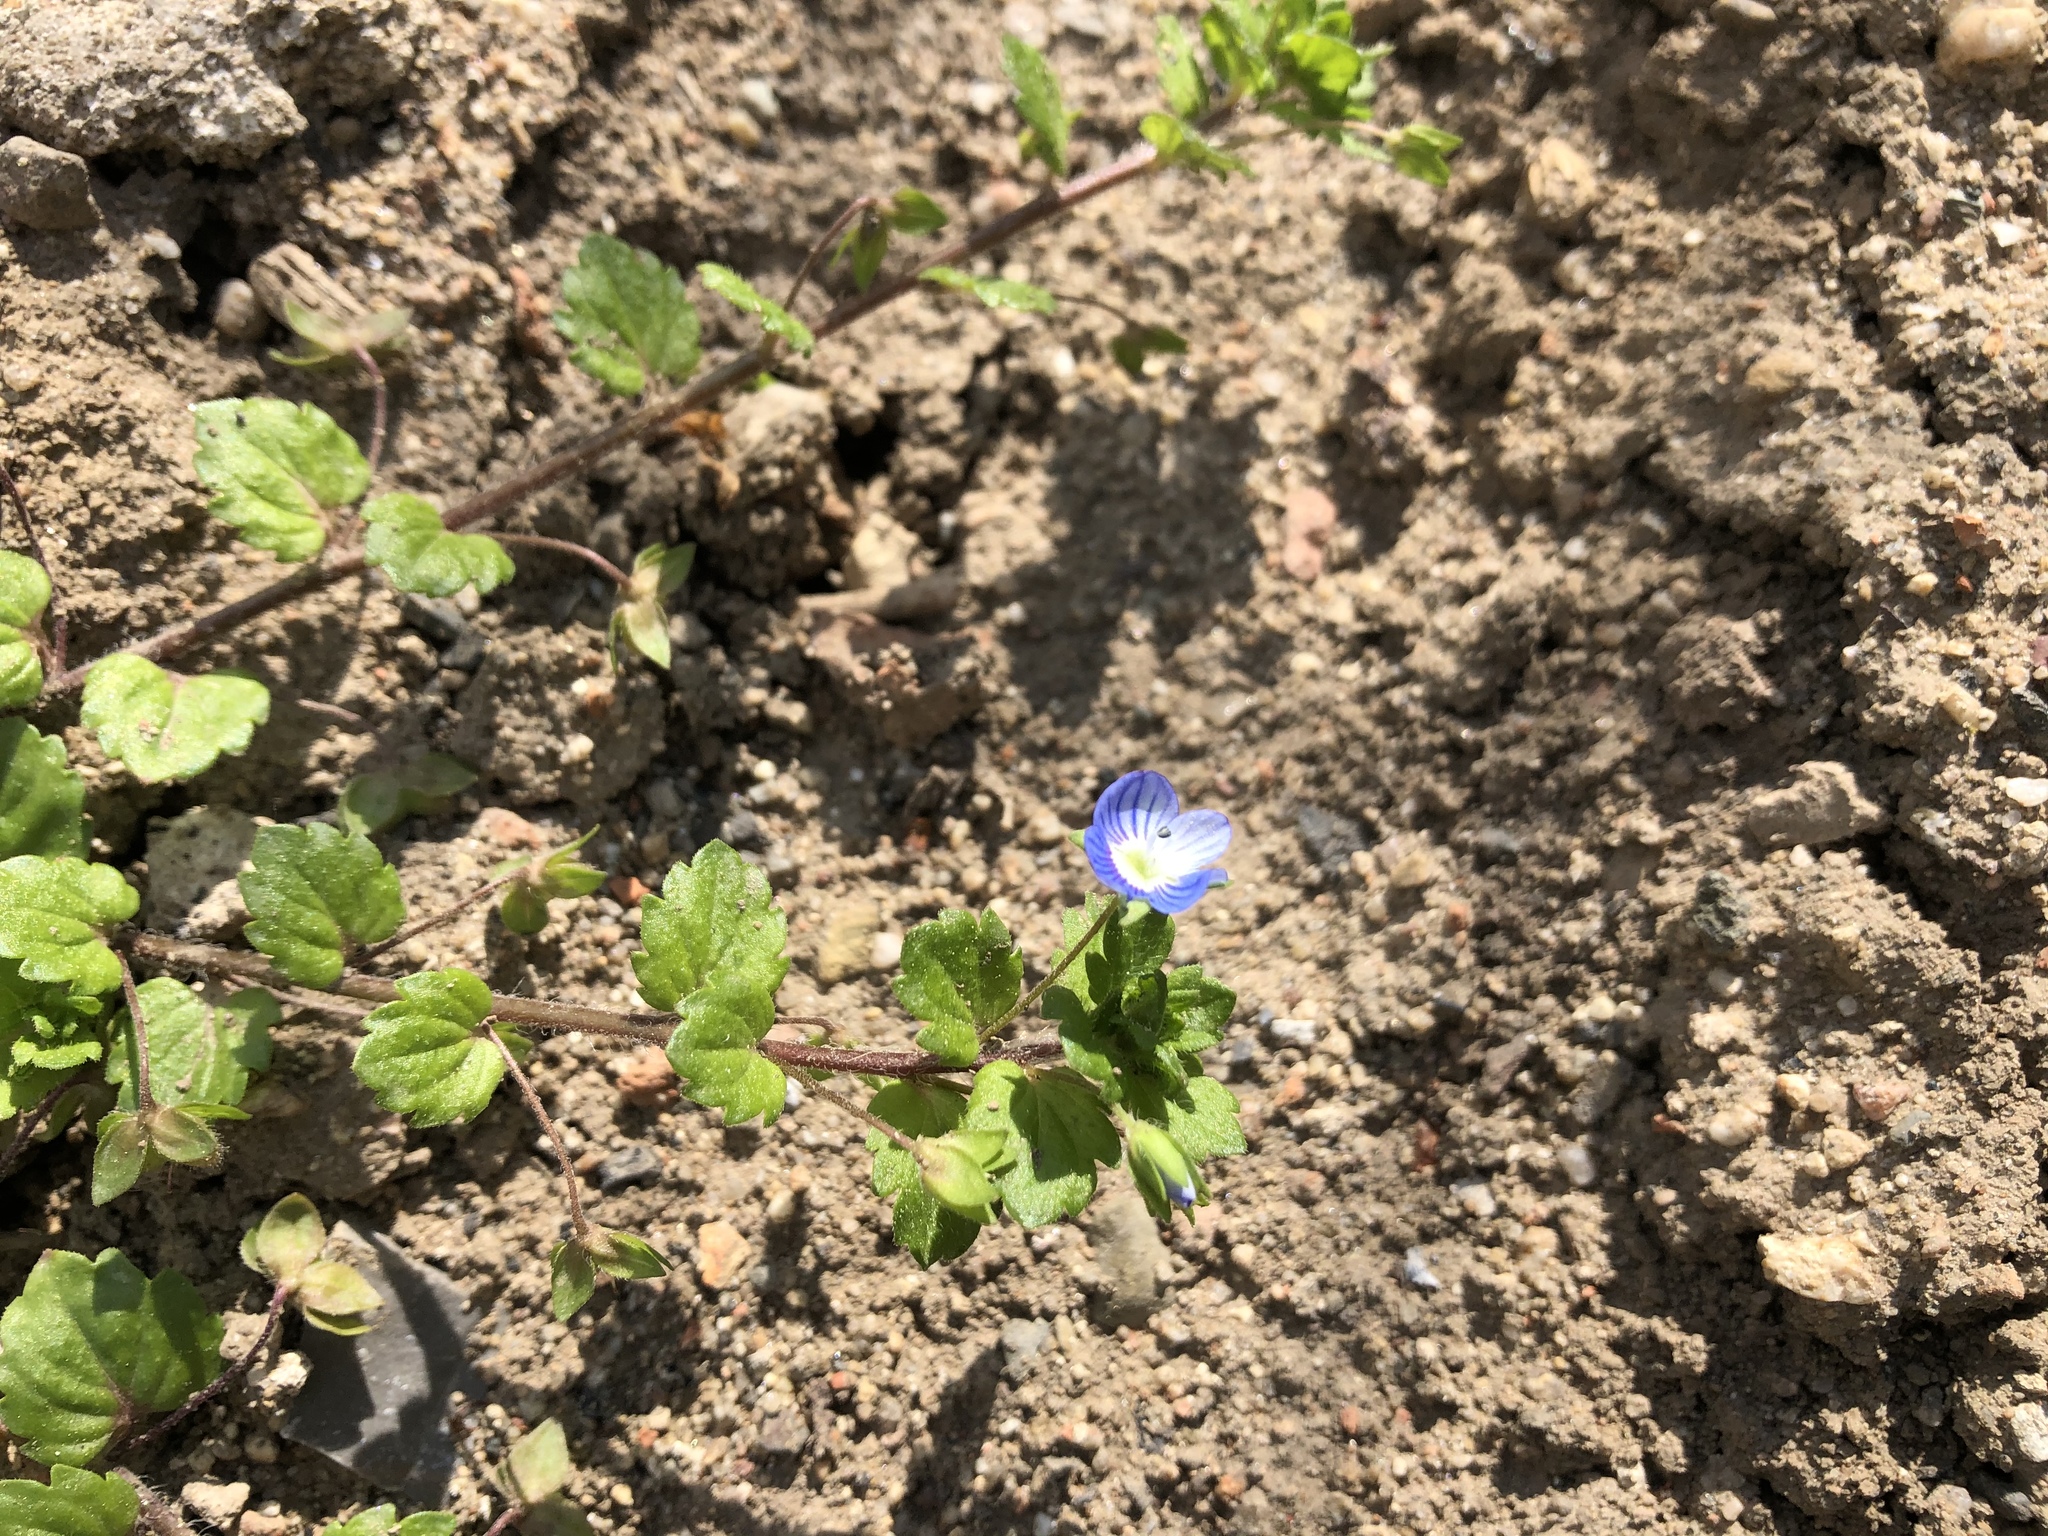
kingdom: Plantae
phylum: Tracheophyta
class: Magnoliopsida
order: Lamiales
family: Plantaginaceae
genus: Veronica
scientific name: Veronica persica
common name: Common field-speedwell
